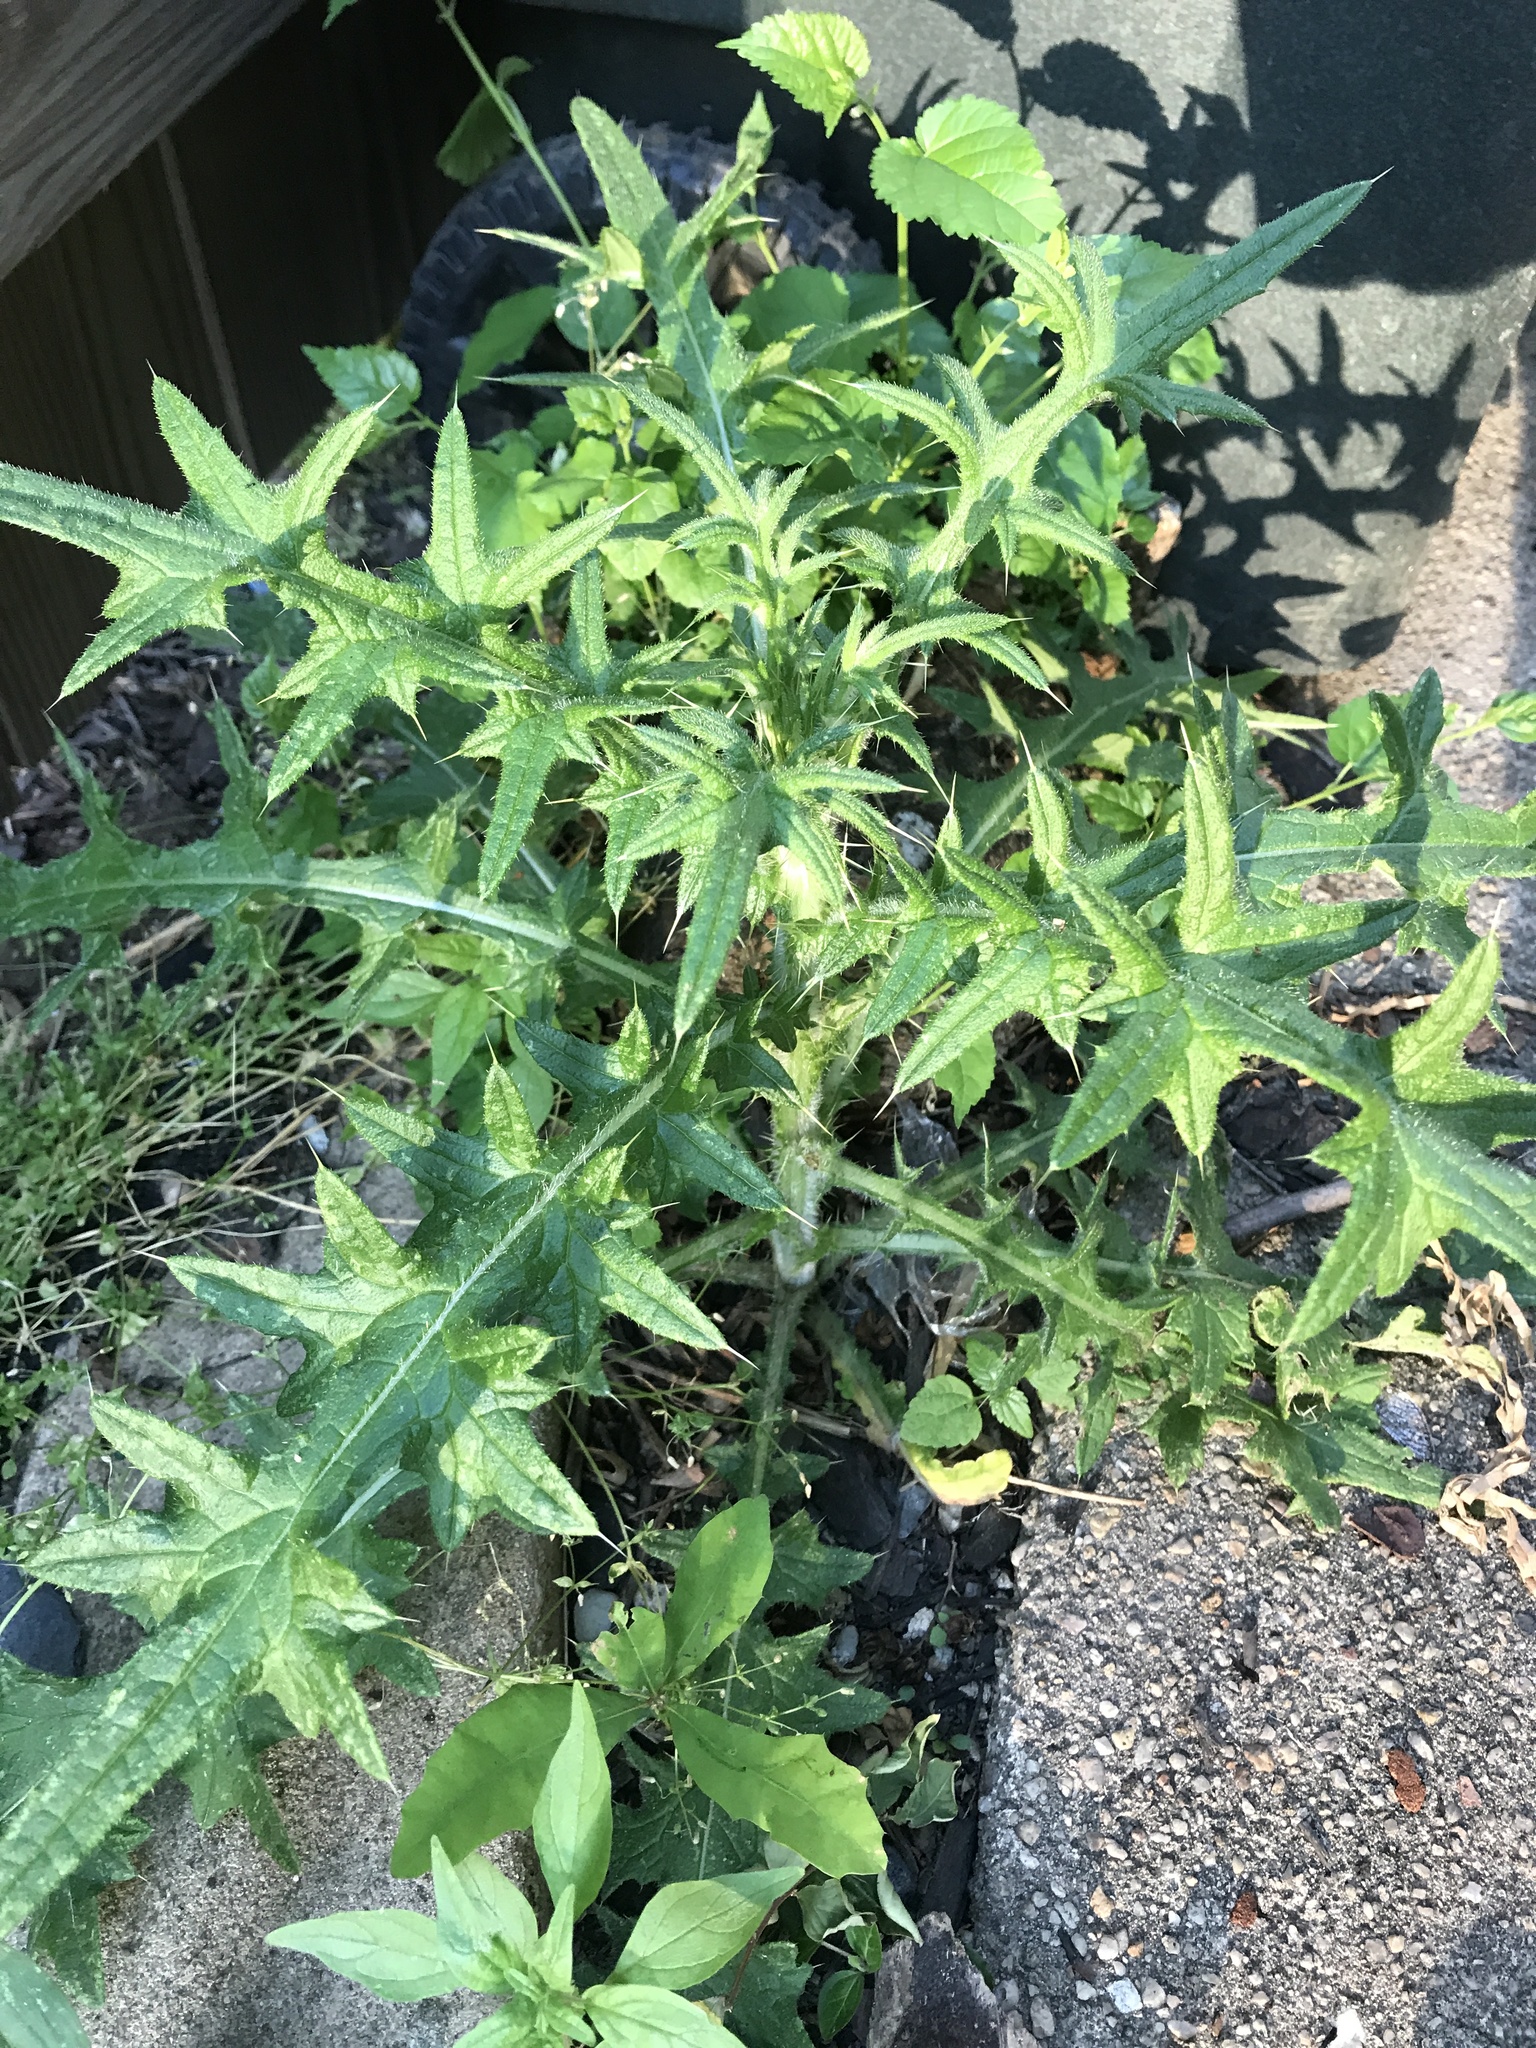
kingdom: Plantae
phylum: Tracheophyta
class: Magnoliopsida
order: Asterales
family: Asteraceae
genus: Cirsium
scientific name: Cirsium vulgare
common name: Bull thistle
